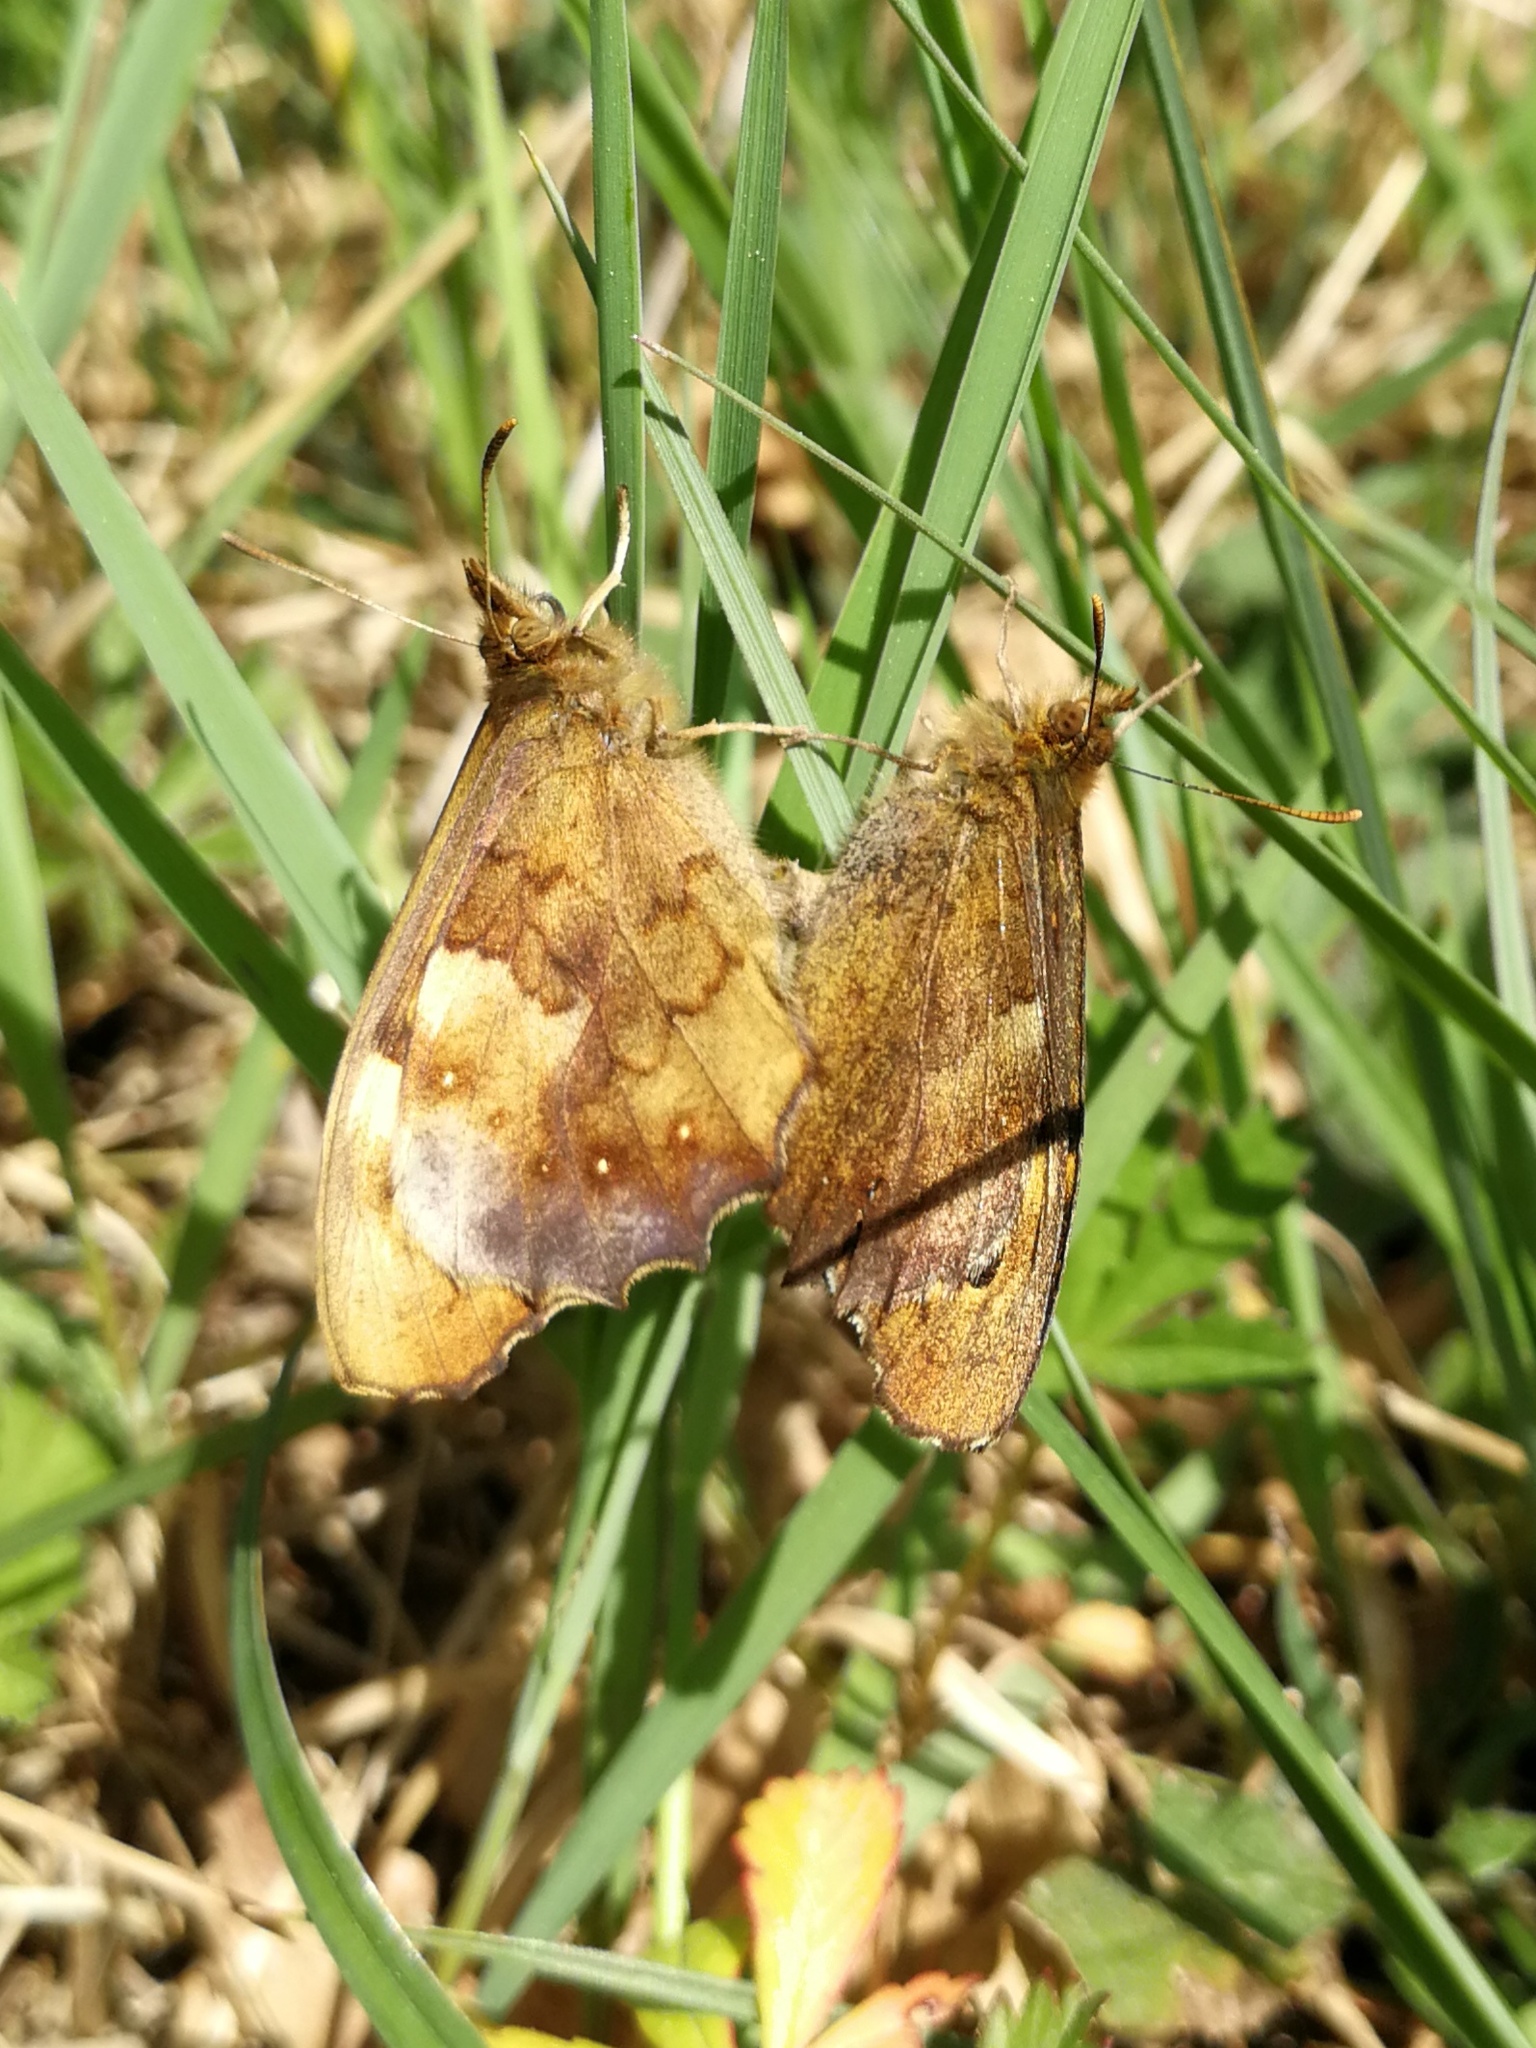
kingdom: Animalia
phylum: Arthropoda
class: Insecta
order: Lepidoptera
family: Nymphalidae
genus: Pararge
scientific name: Pararge aegeria
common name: Speckled wood
